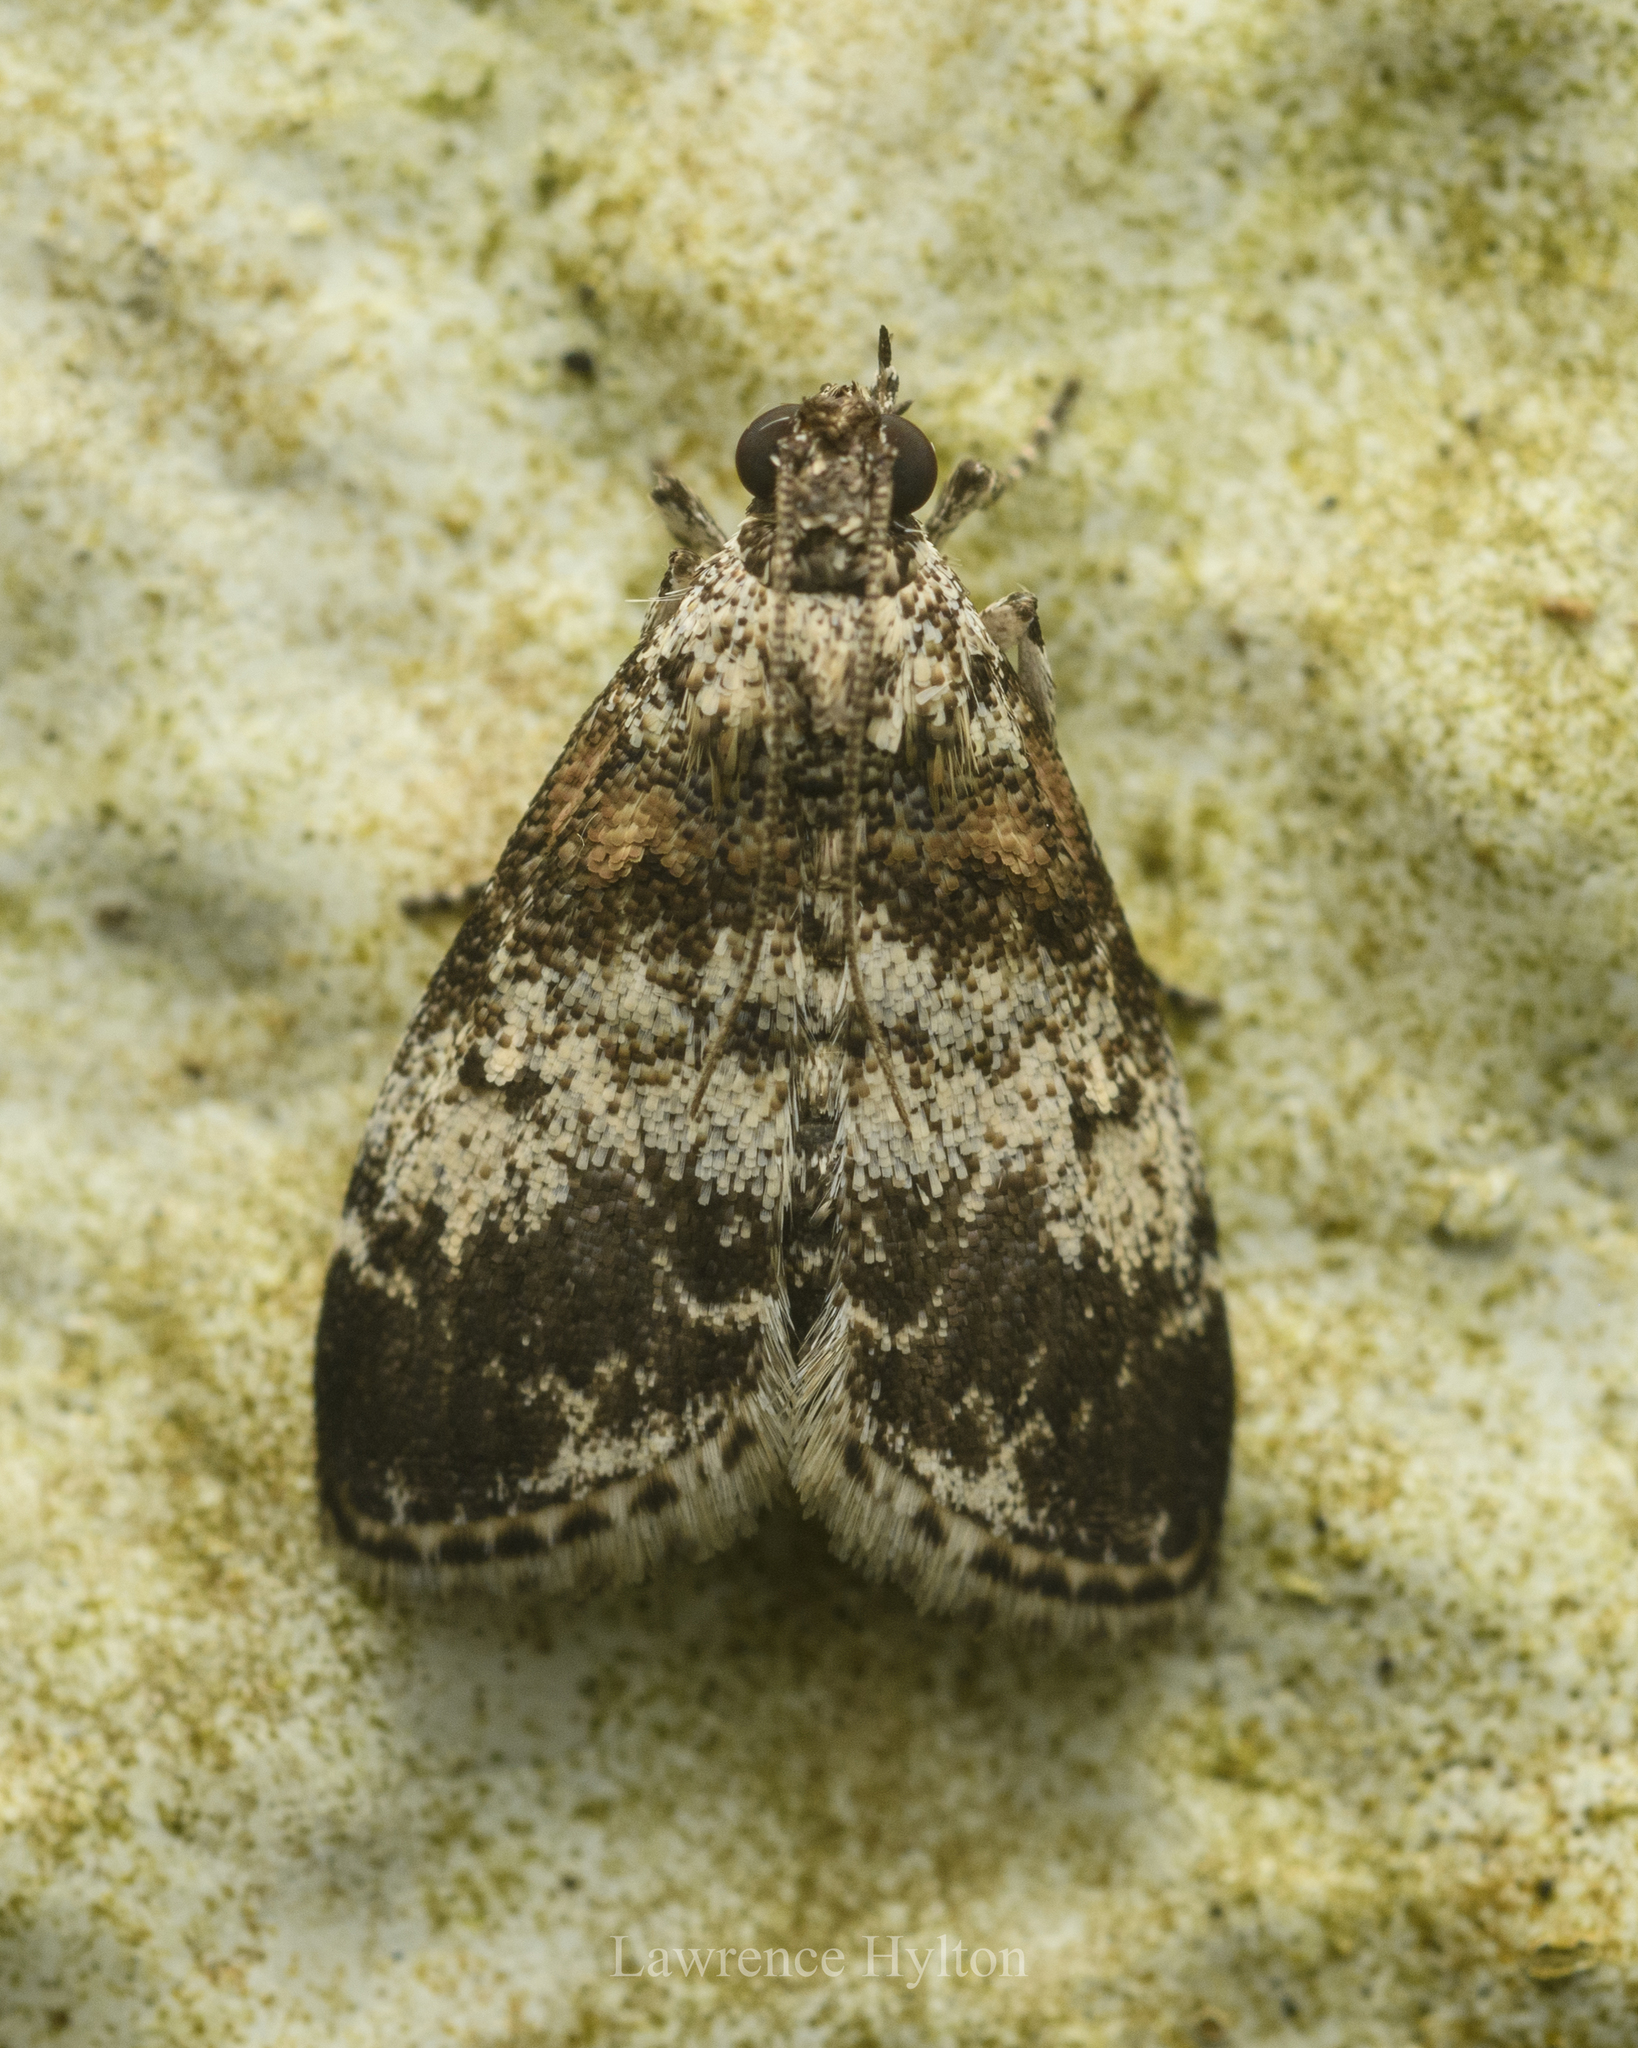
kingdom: Animalia
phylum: Arthropoda
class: Insecta
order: Lepidoptera
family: Pyralidae
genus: Salma
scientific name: Salma
